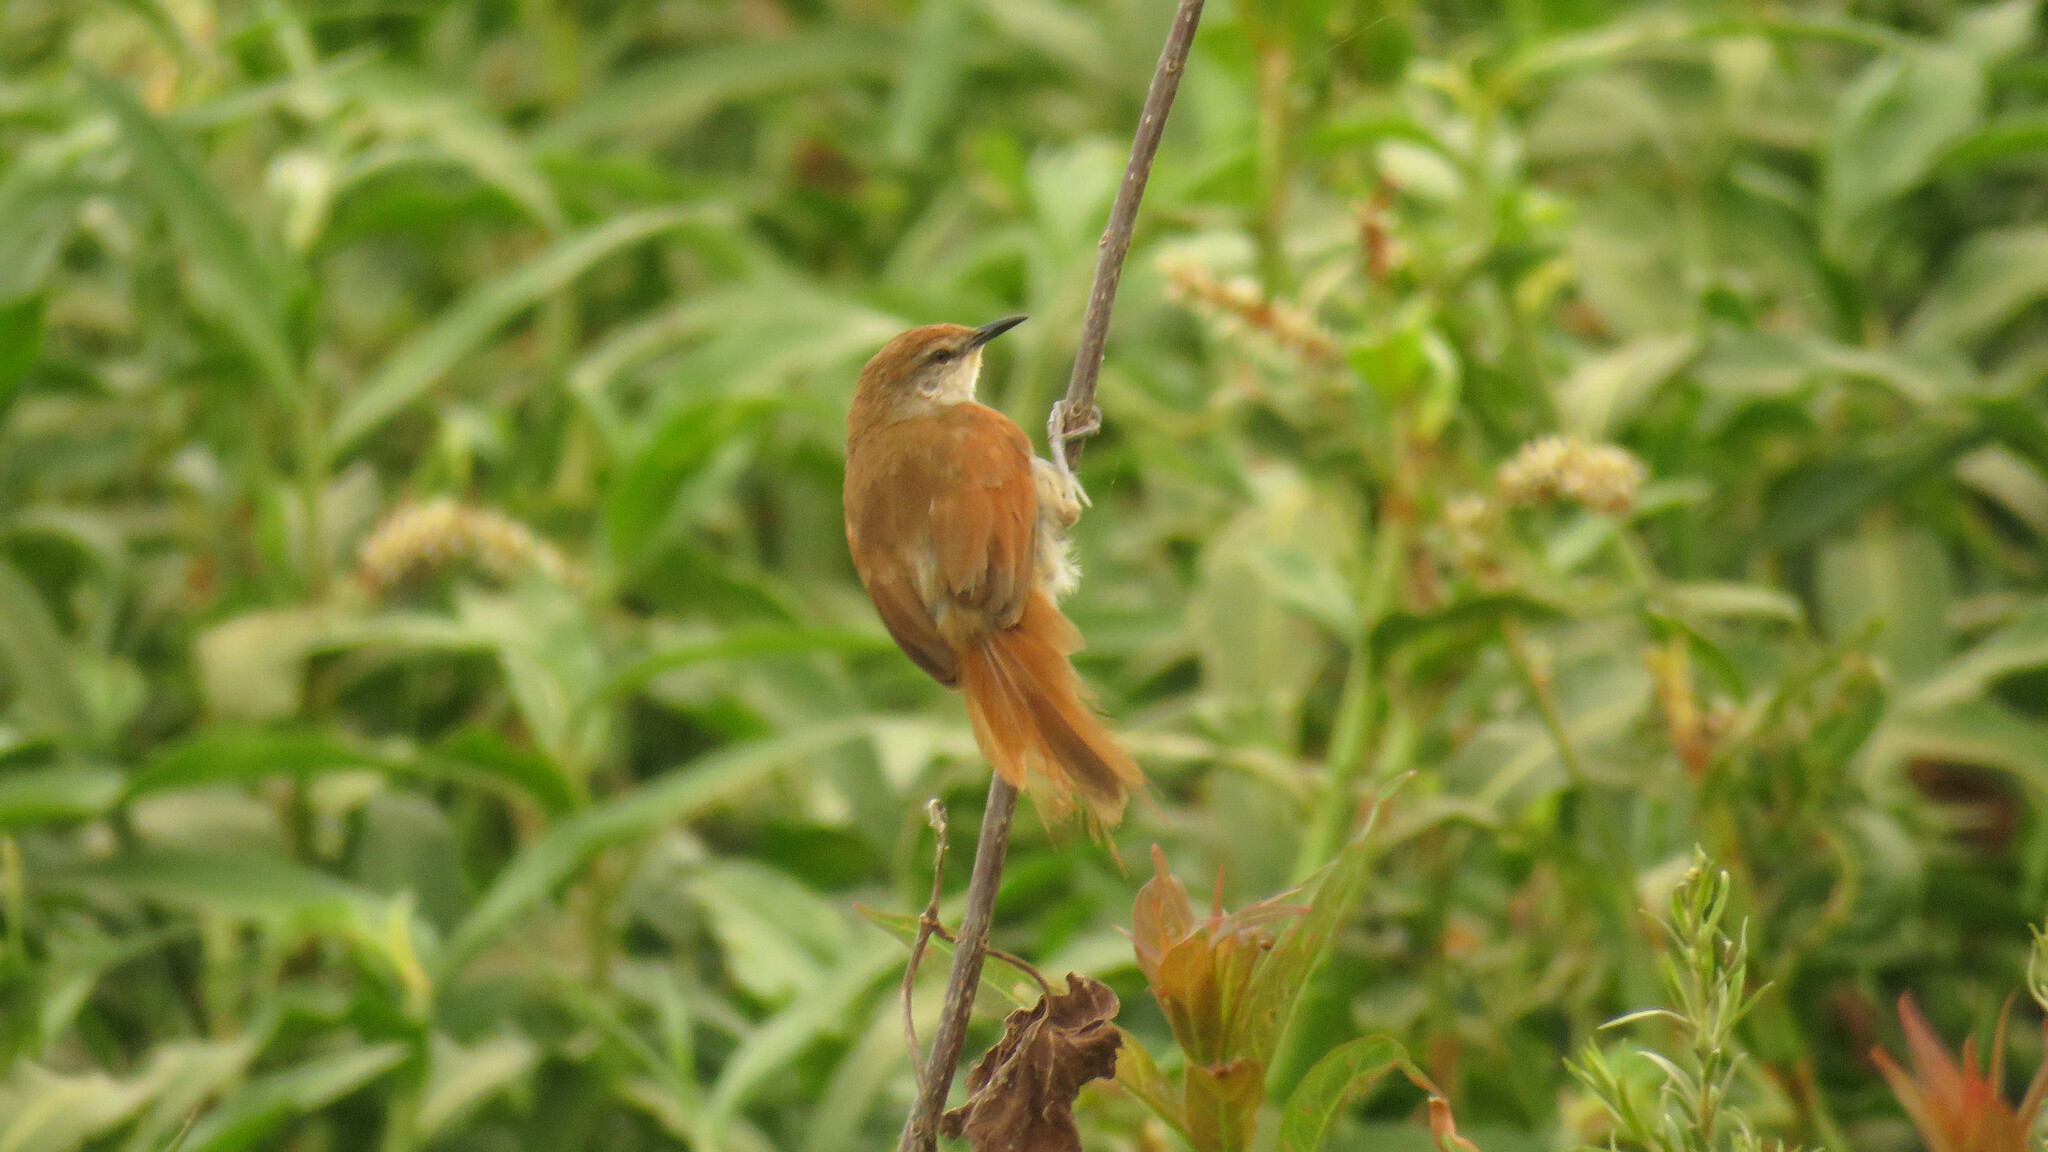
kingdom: Animalia
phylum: Chordata
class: Aves
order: Passeriformes
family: Furnariidae
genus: Certhiaxis
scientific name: Certhiaxis cinnamomeus
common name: Yellow-chinned spinetail
